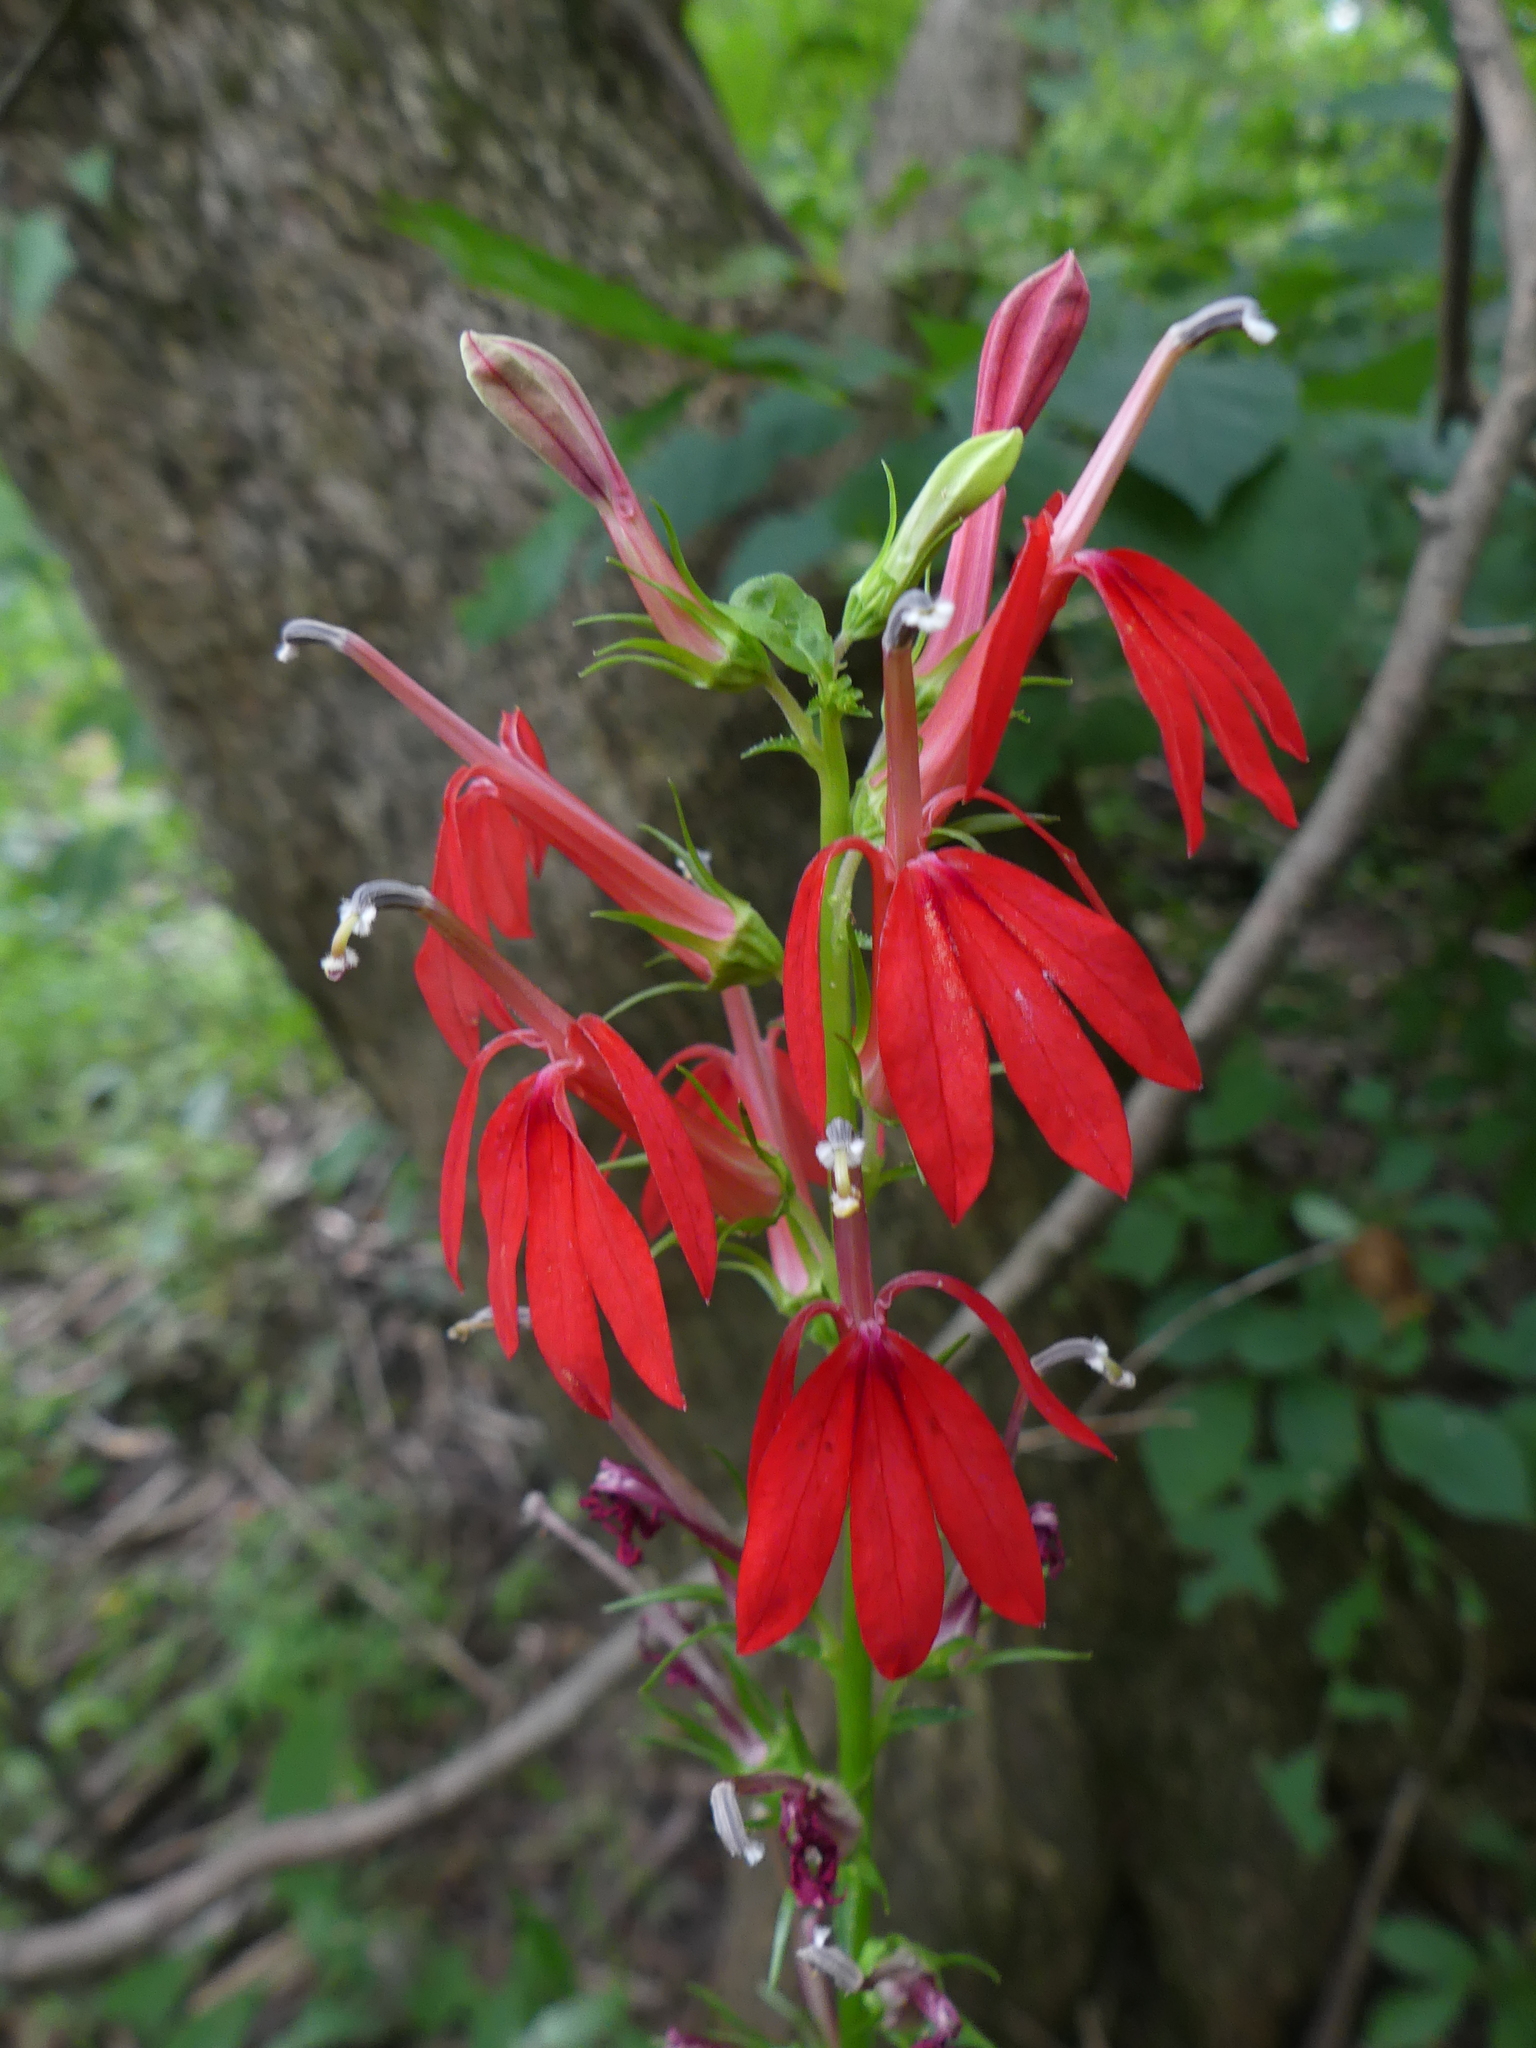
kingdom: Plantae
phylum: Tracheophyta
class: Magnoliopsida
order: Asterales
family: Campanulaceae
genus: Lobelia
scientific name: Lobelia cardinalis
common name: Cardinal flower
